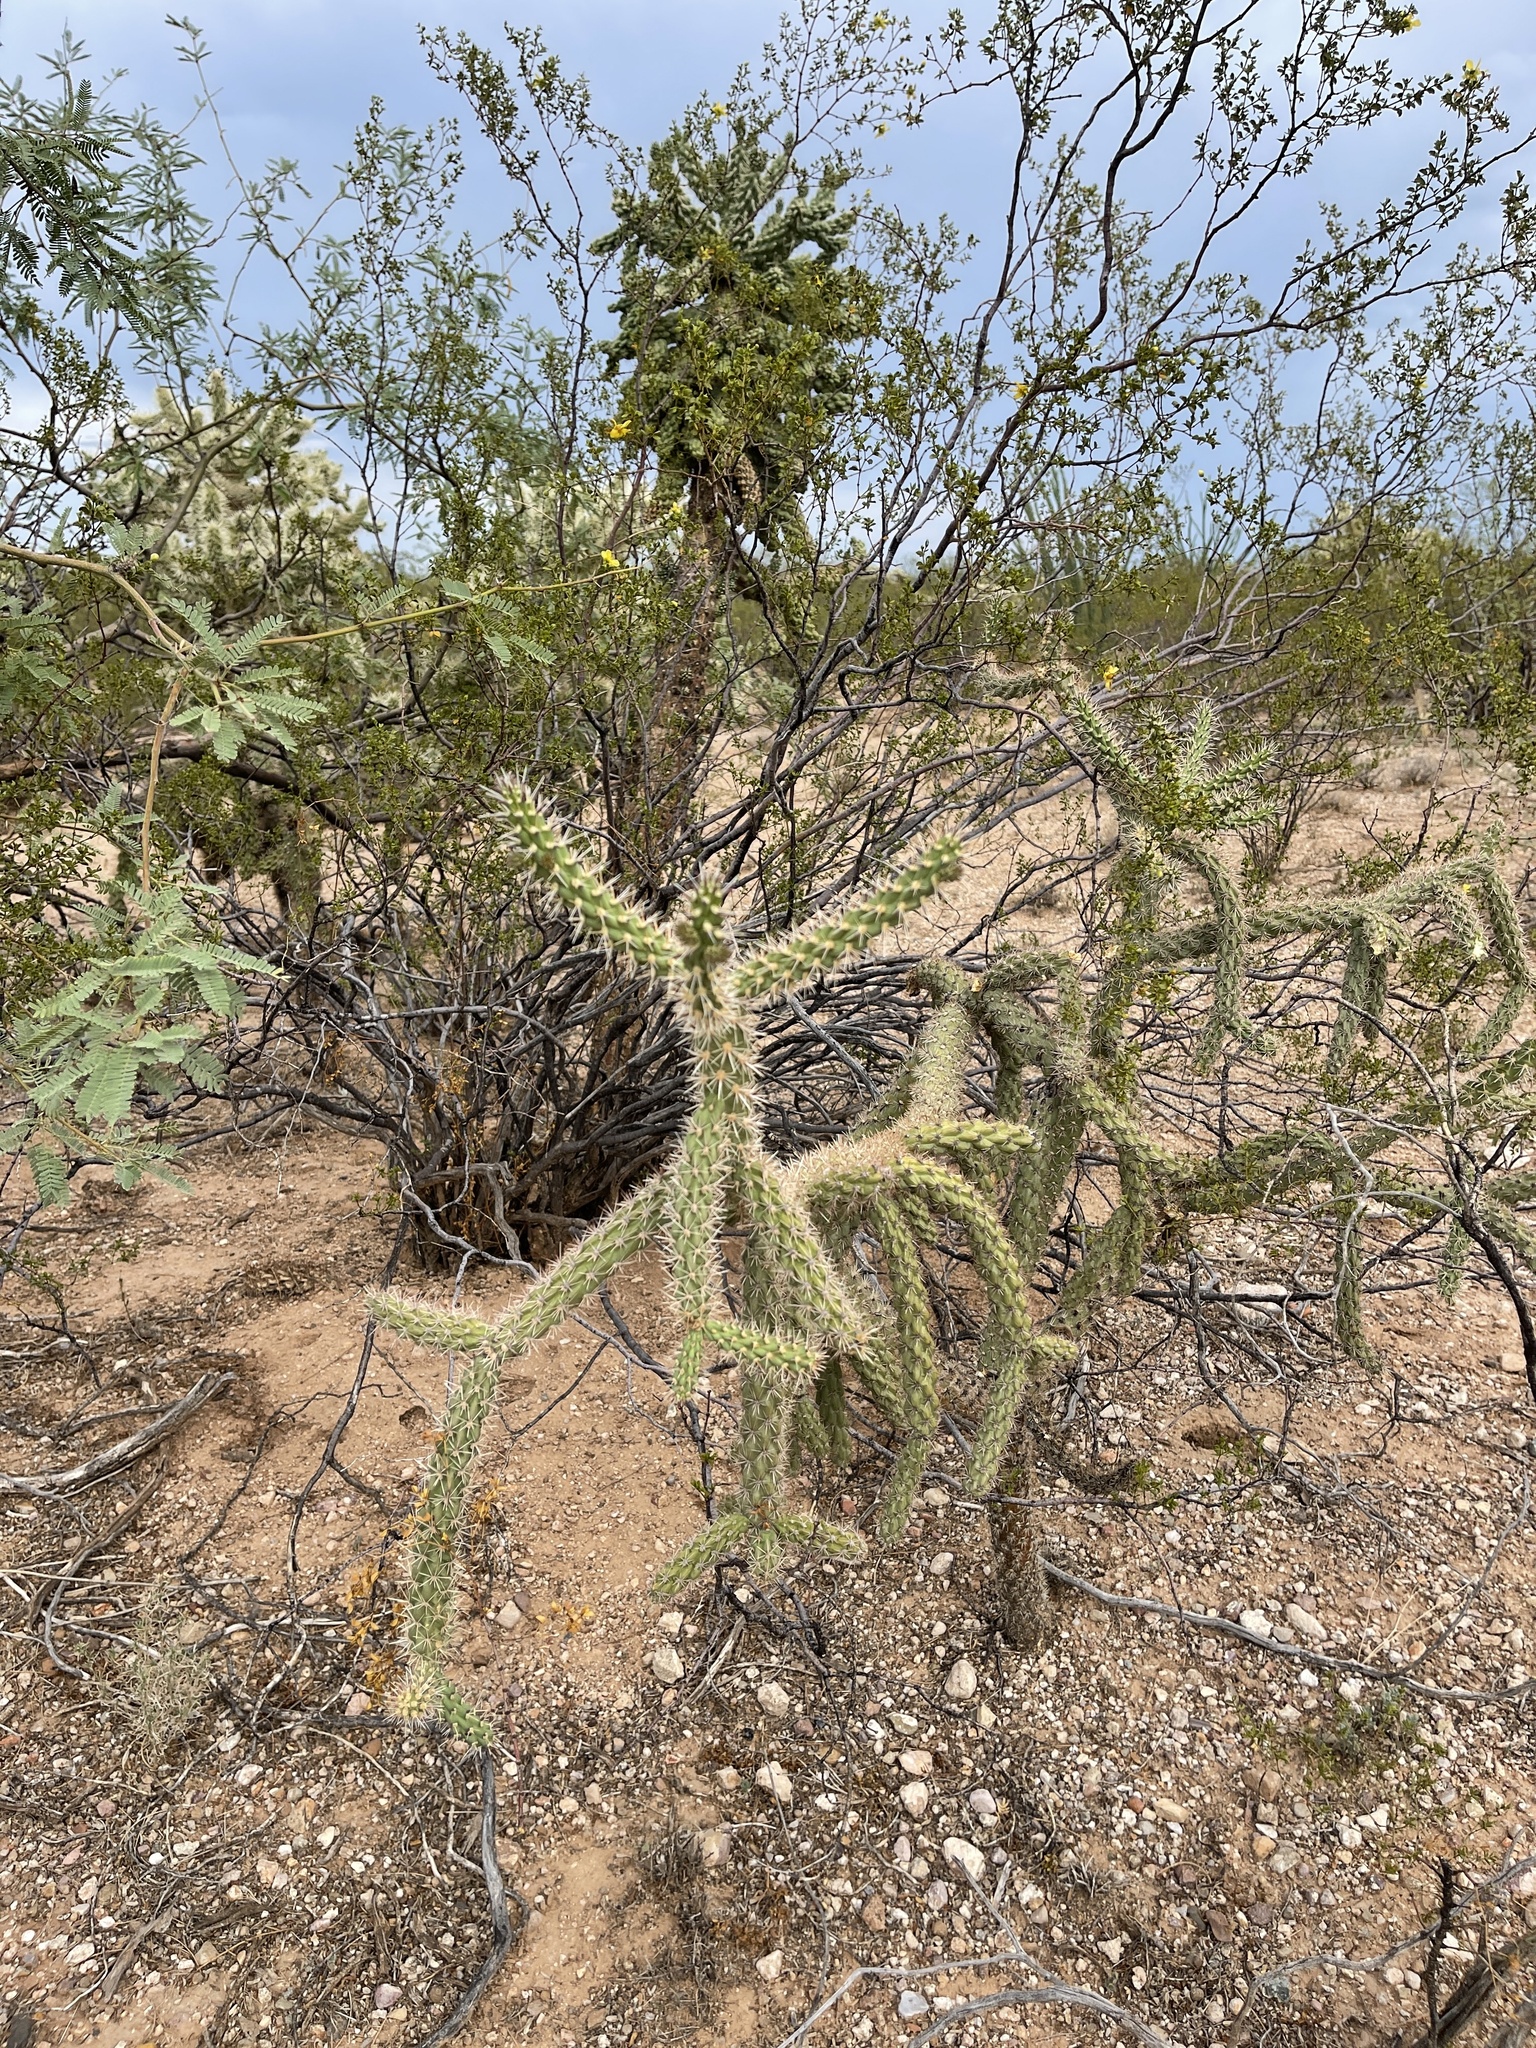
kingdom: Plantae
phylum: Tracheophyta
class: Magnoliopsida
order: Caryophyllales
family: Cactaceae
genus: Cylindropuntia
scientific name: Cylindropuntia imbricata
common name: Candelabrum cactus
